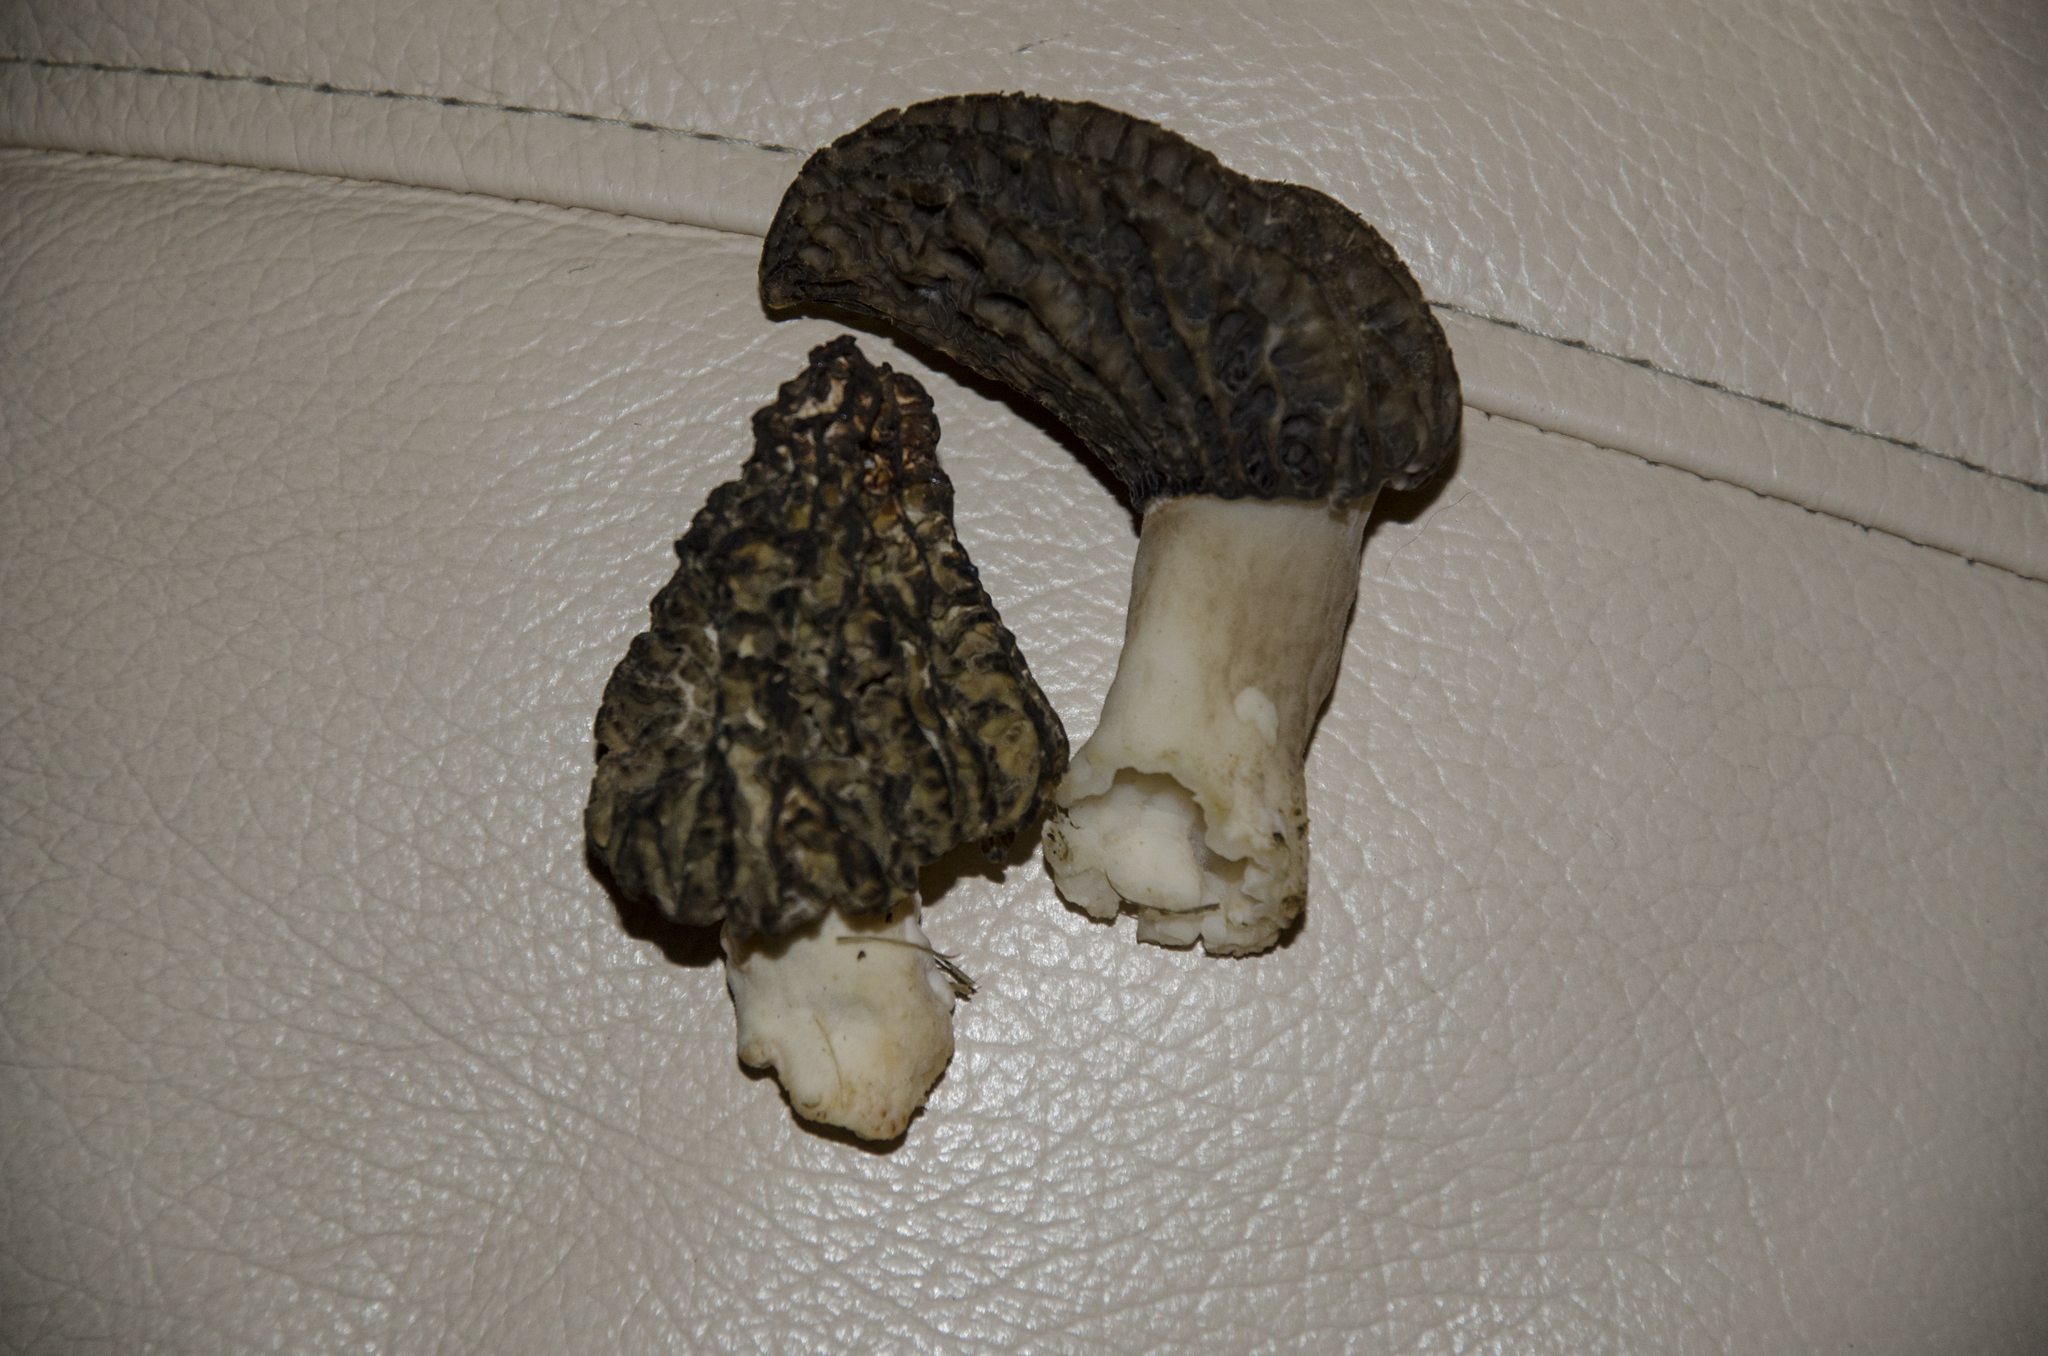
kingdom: Fungi
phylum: Ascomycota
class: Pezizomycetes
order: Pezizales
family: Morchellaceae
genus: Morchella
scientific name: Morchella importuna
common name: Landscaping black morel
